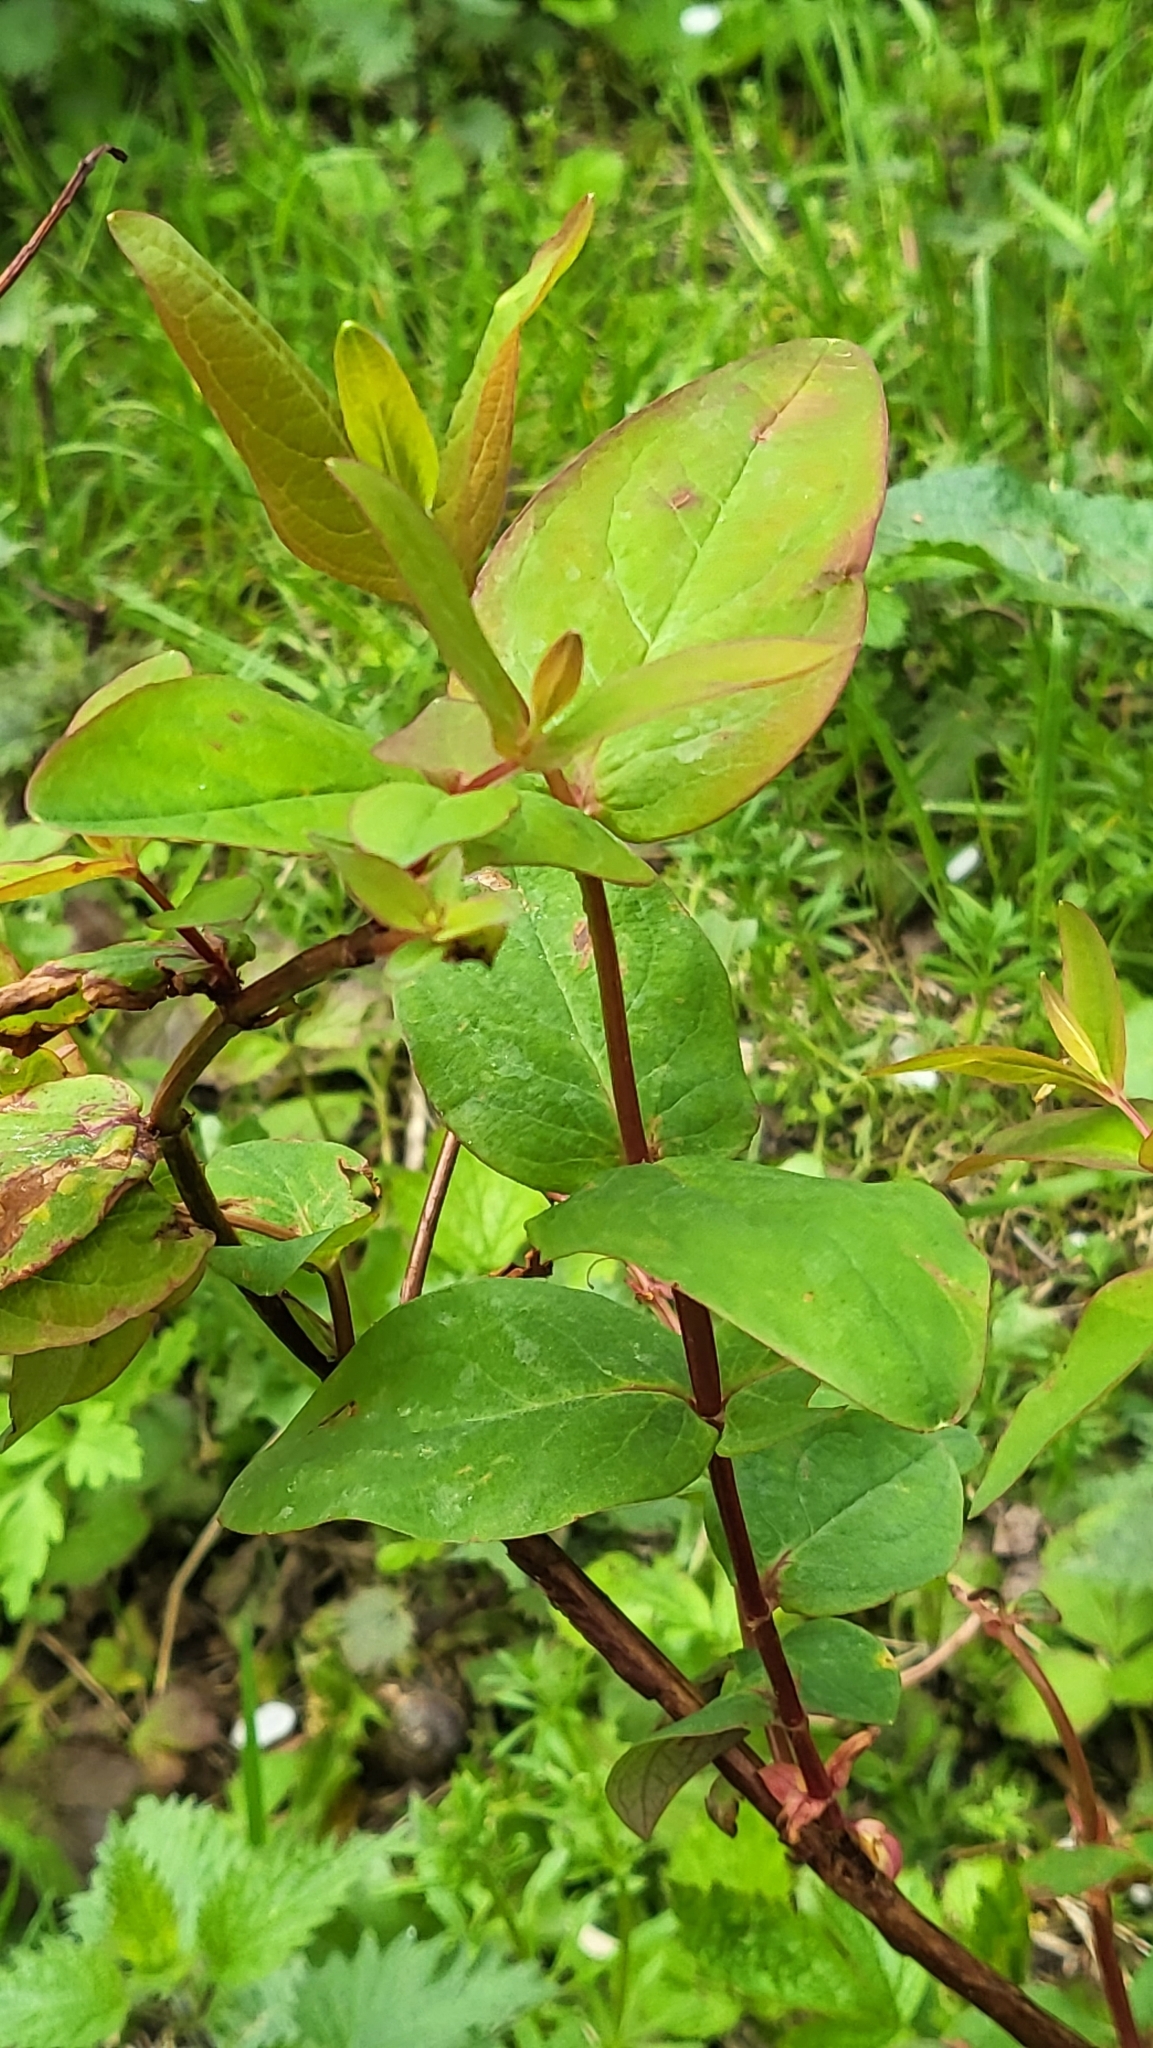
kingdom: Fungi
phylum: Basidiomycota
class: Pucciniomycetes
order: Pucciniales
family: Melampsoraceae
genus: Melampsora
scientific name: Melampsora
